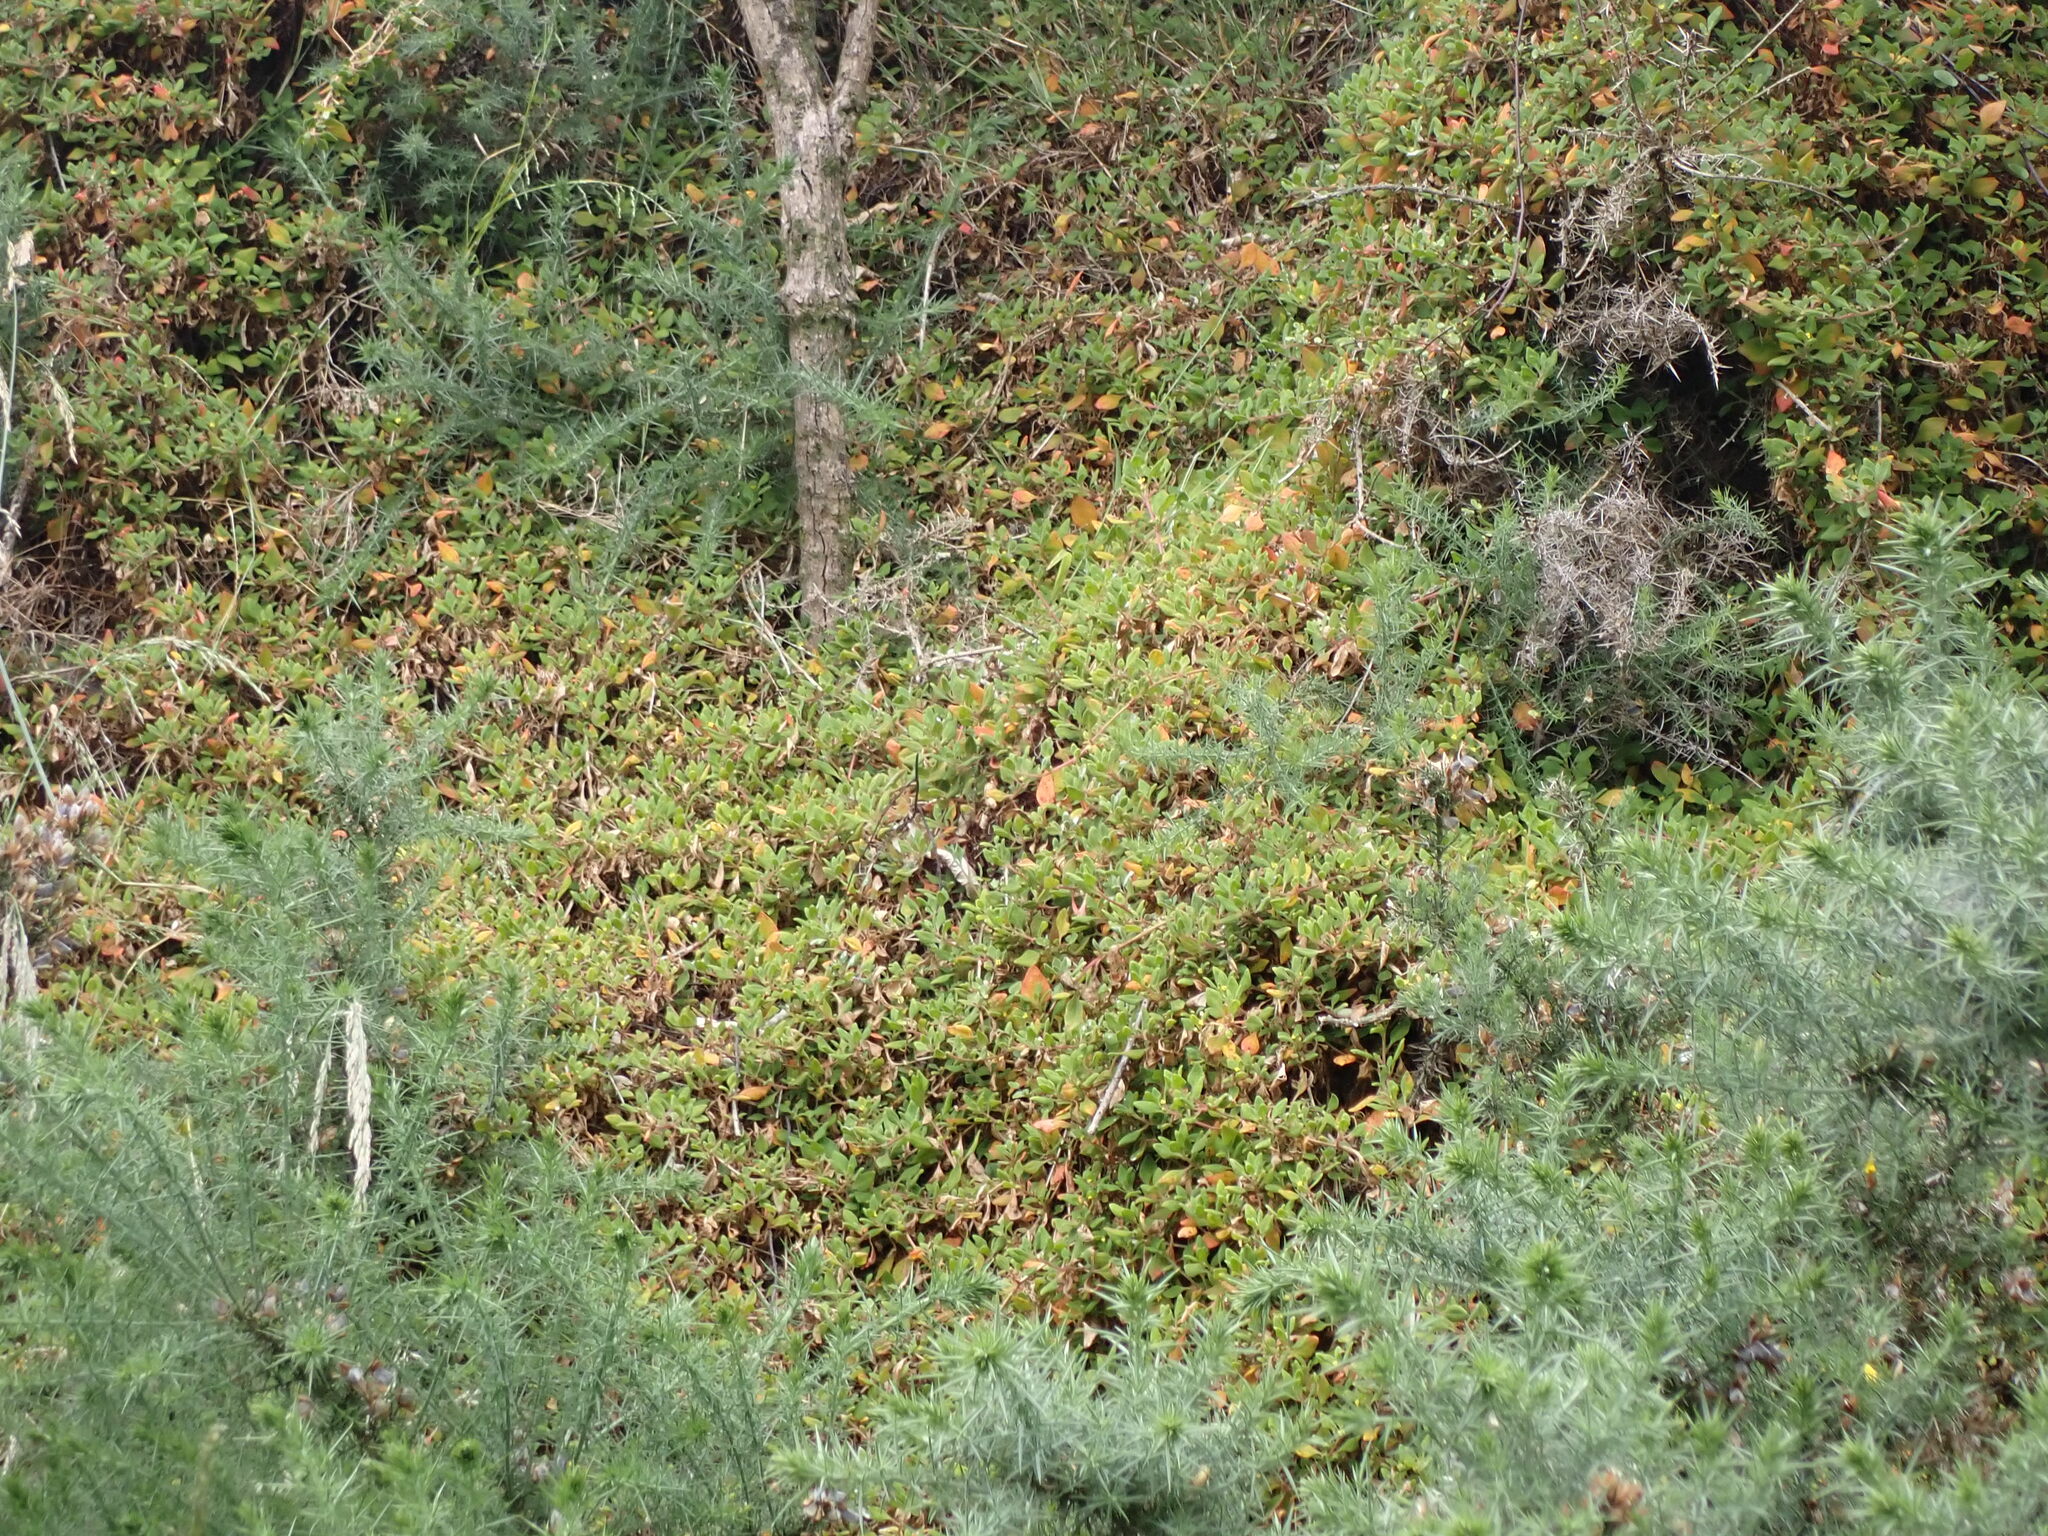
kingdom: Plantae
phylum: Tracheophyta
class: Magnoliopsida
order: Caryophyllales
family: Aizoaceae
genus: Tetragonia
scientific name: Tetragonia implexicoma
